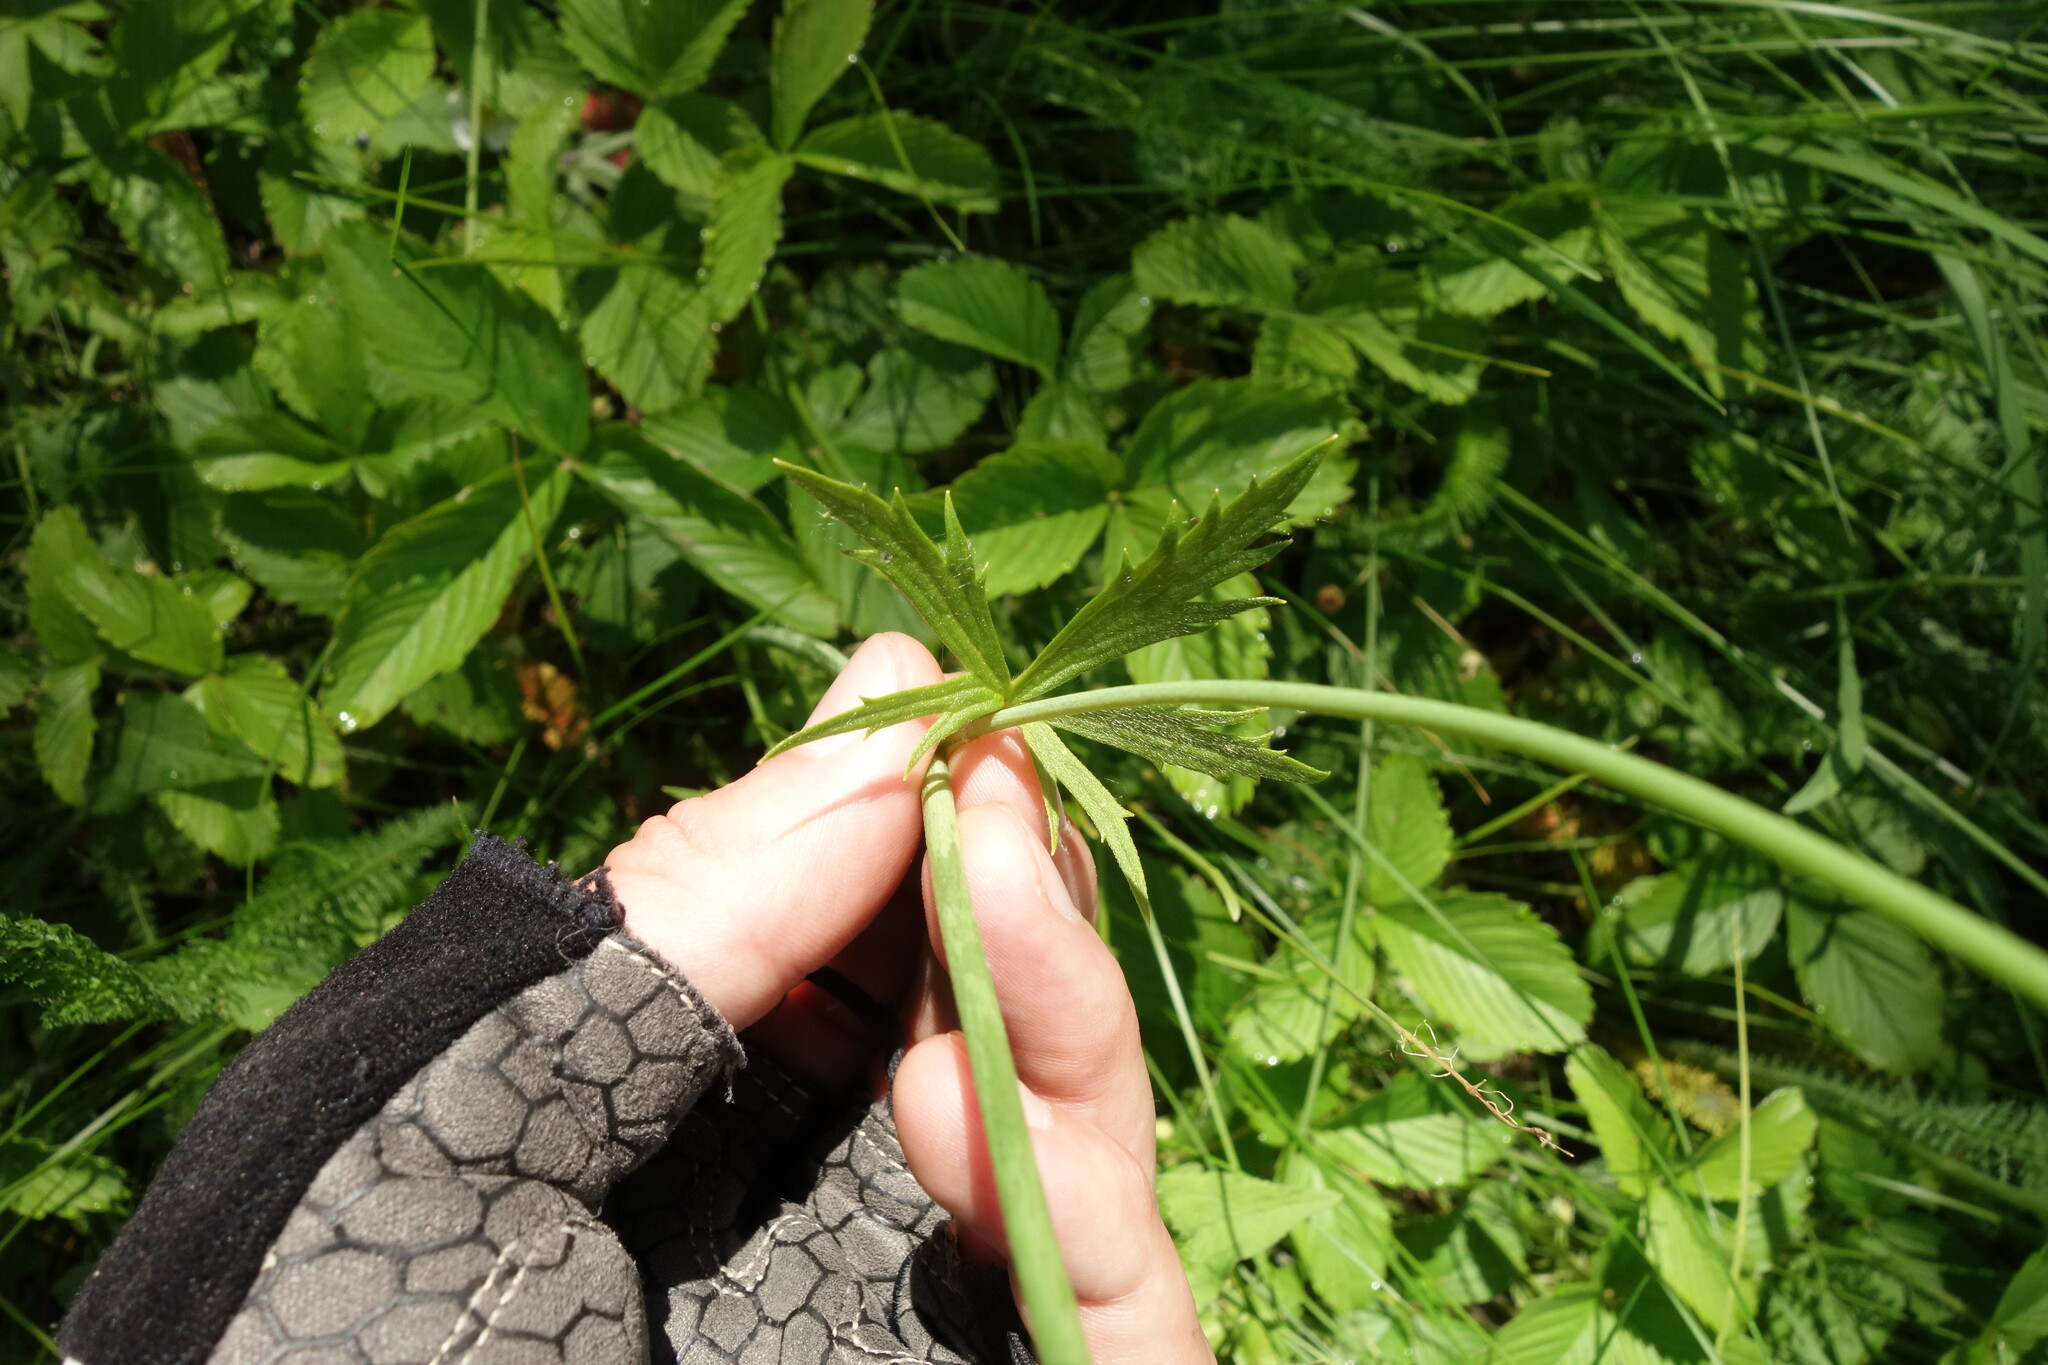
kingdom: Plantae
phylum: Tracheophyta
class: Magnoliopsida
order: Ranunculales
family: Ranunculaceae
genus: Ranunculus
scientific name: Ranunculus acris
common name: Meadow buttercup
